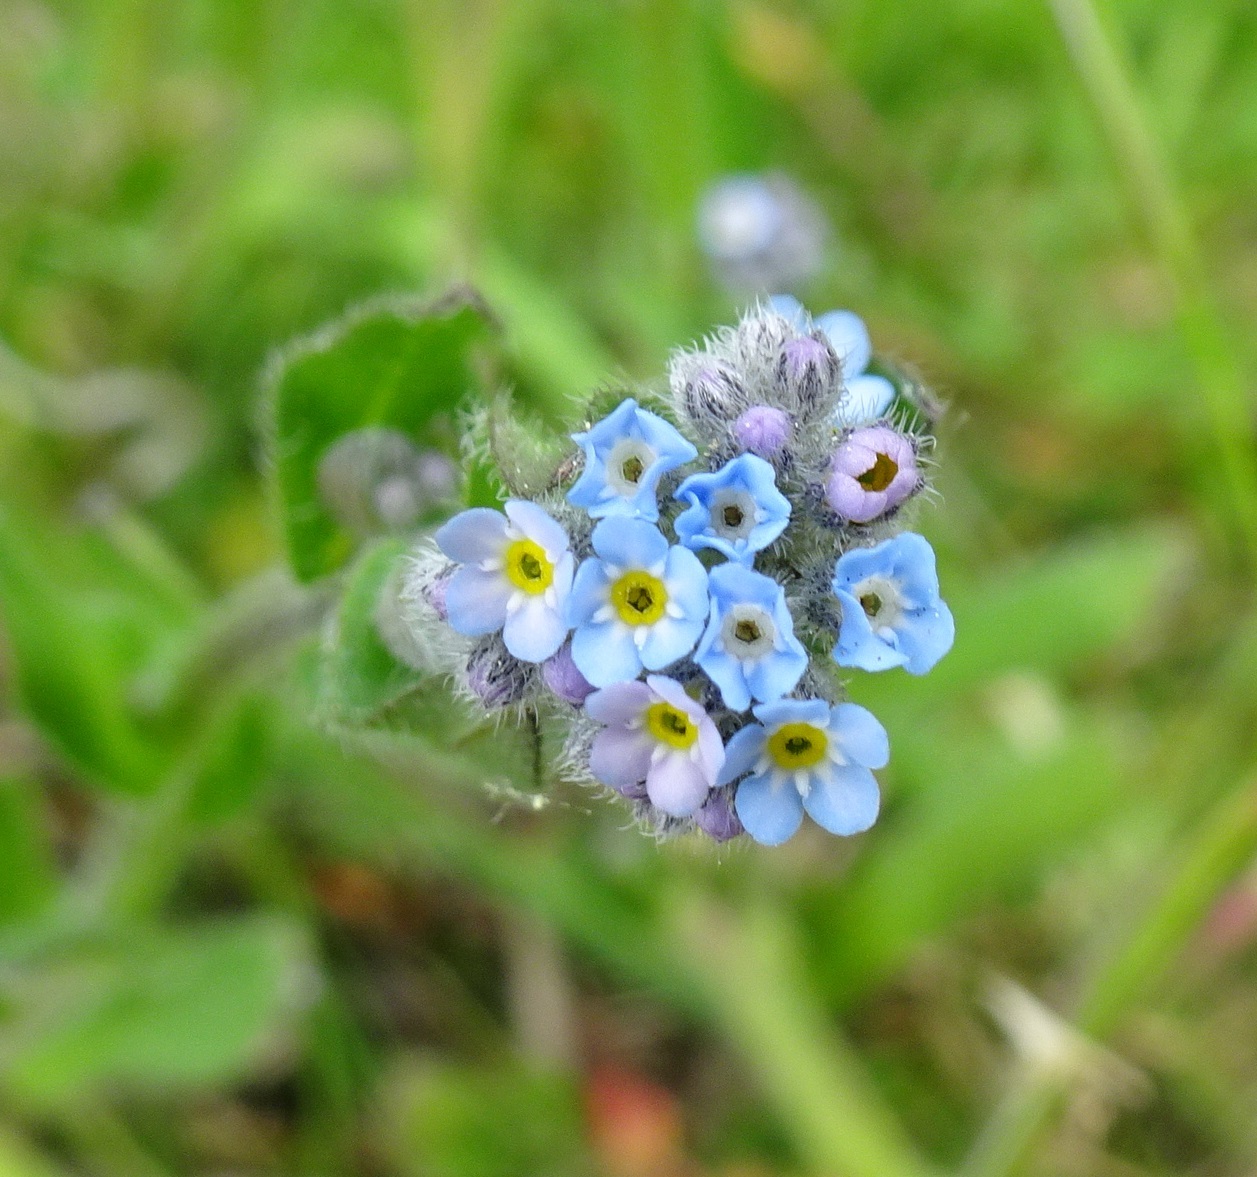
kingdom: Plantae
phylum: Tracheophyta
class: Magnoliopsida
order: Boraginales
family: Boraginaceae
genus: Myosotis
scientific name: Myosotis arvensis
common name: Field forget-me-not
